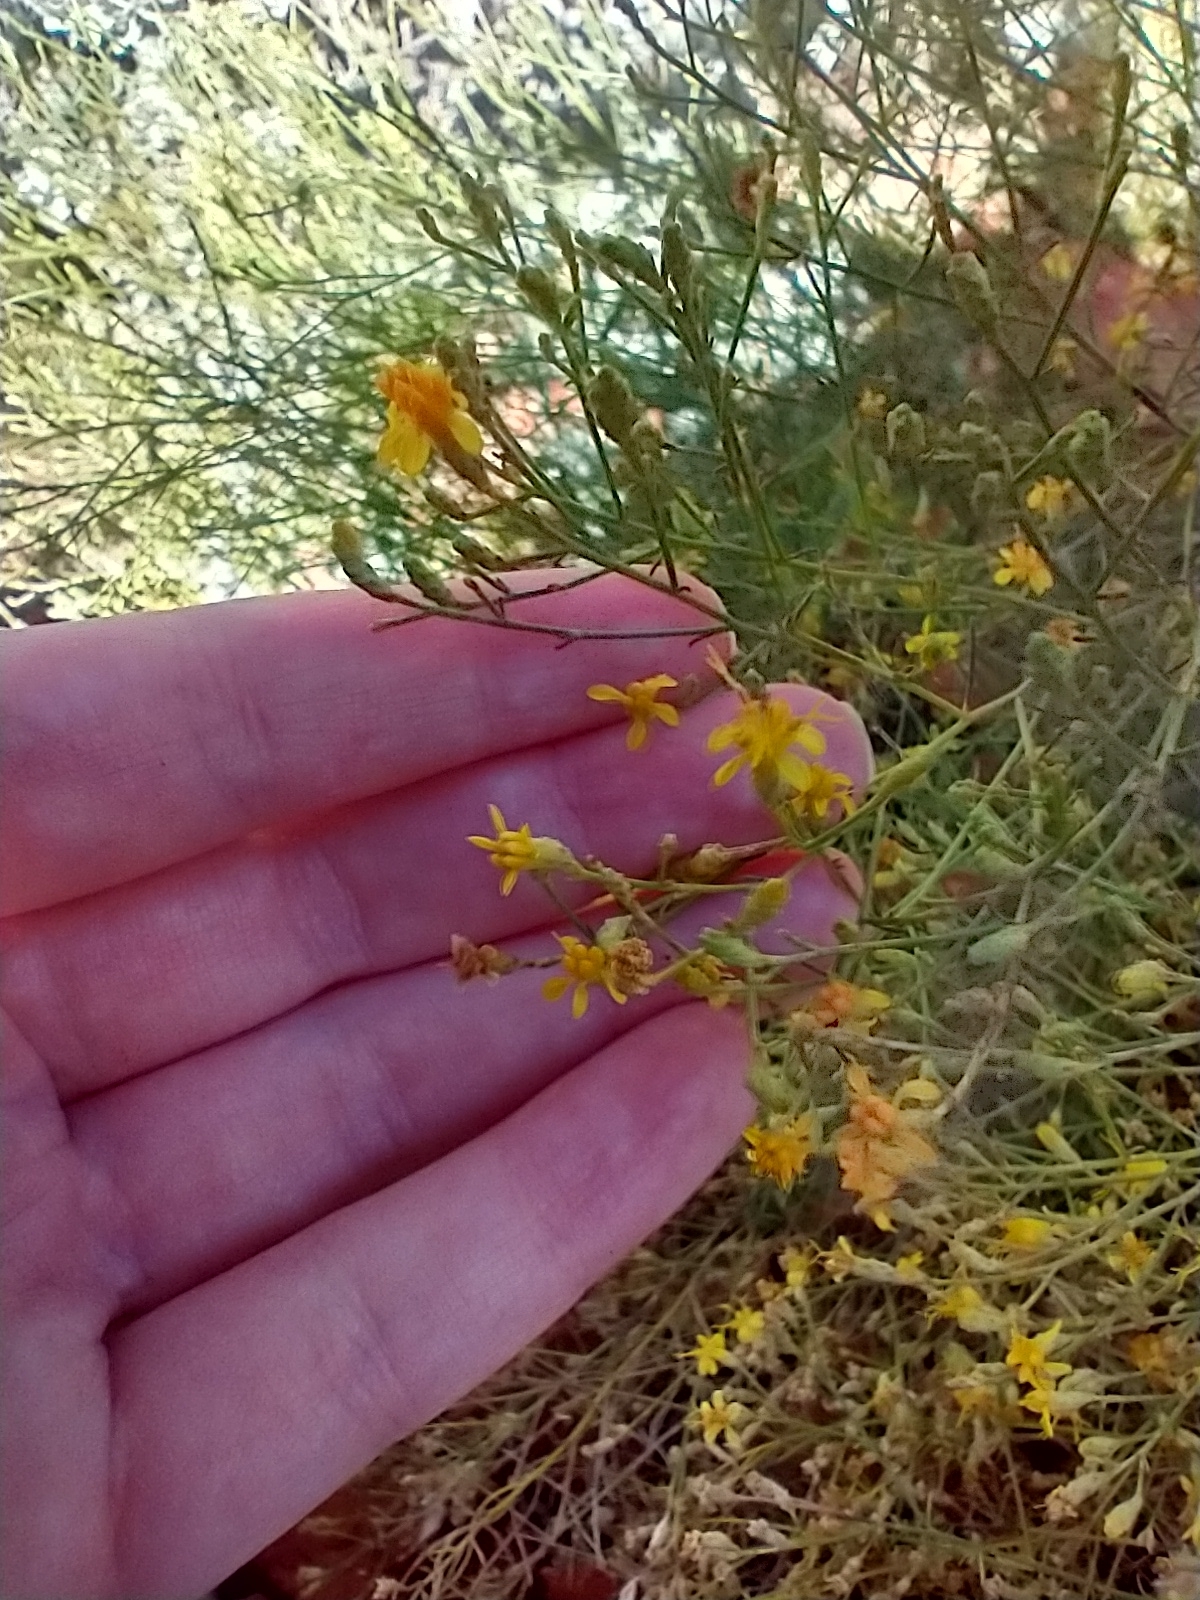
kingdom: Plantae
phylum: Tracheophyta
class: Magnoliopsida
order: Asterales
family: Asteraceae
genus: Gutierrezia
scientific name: Gutierrezia sarothrae
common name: Broom snakeweed
